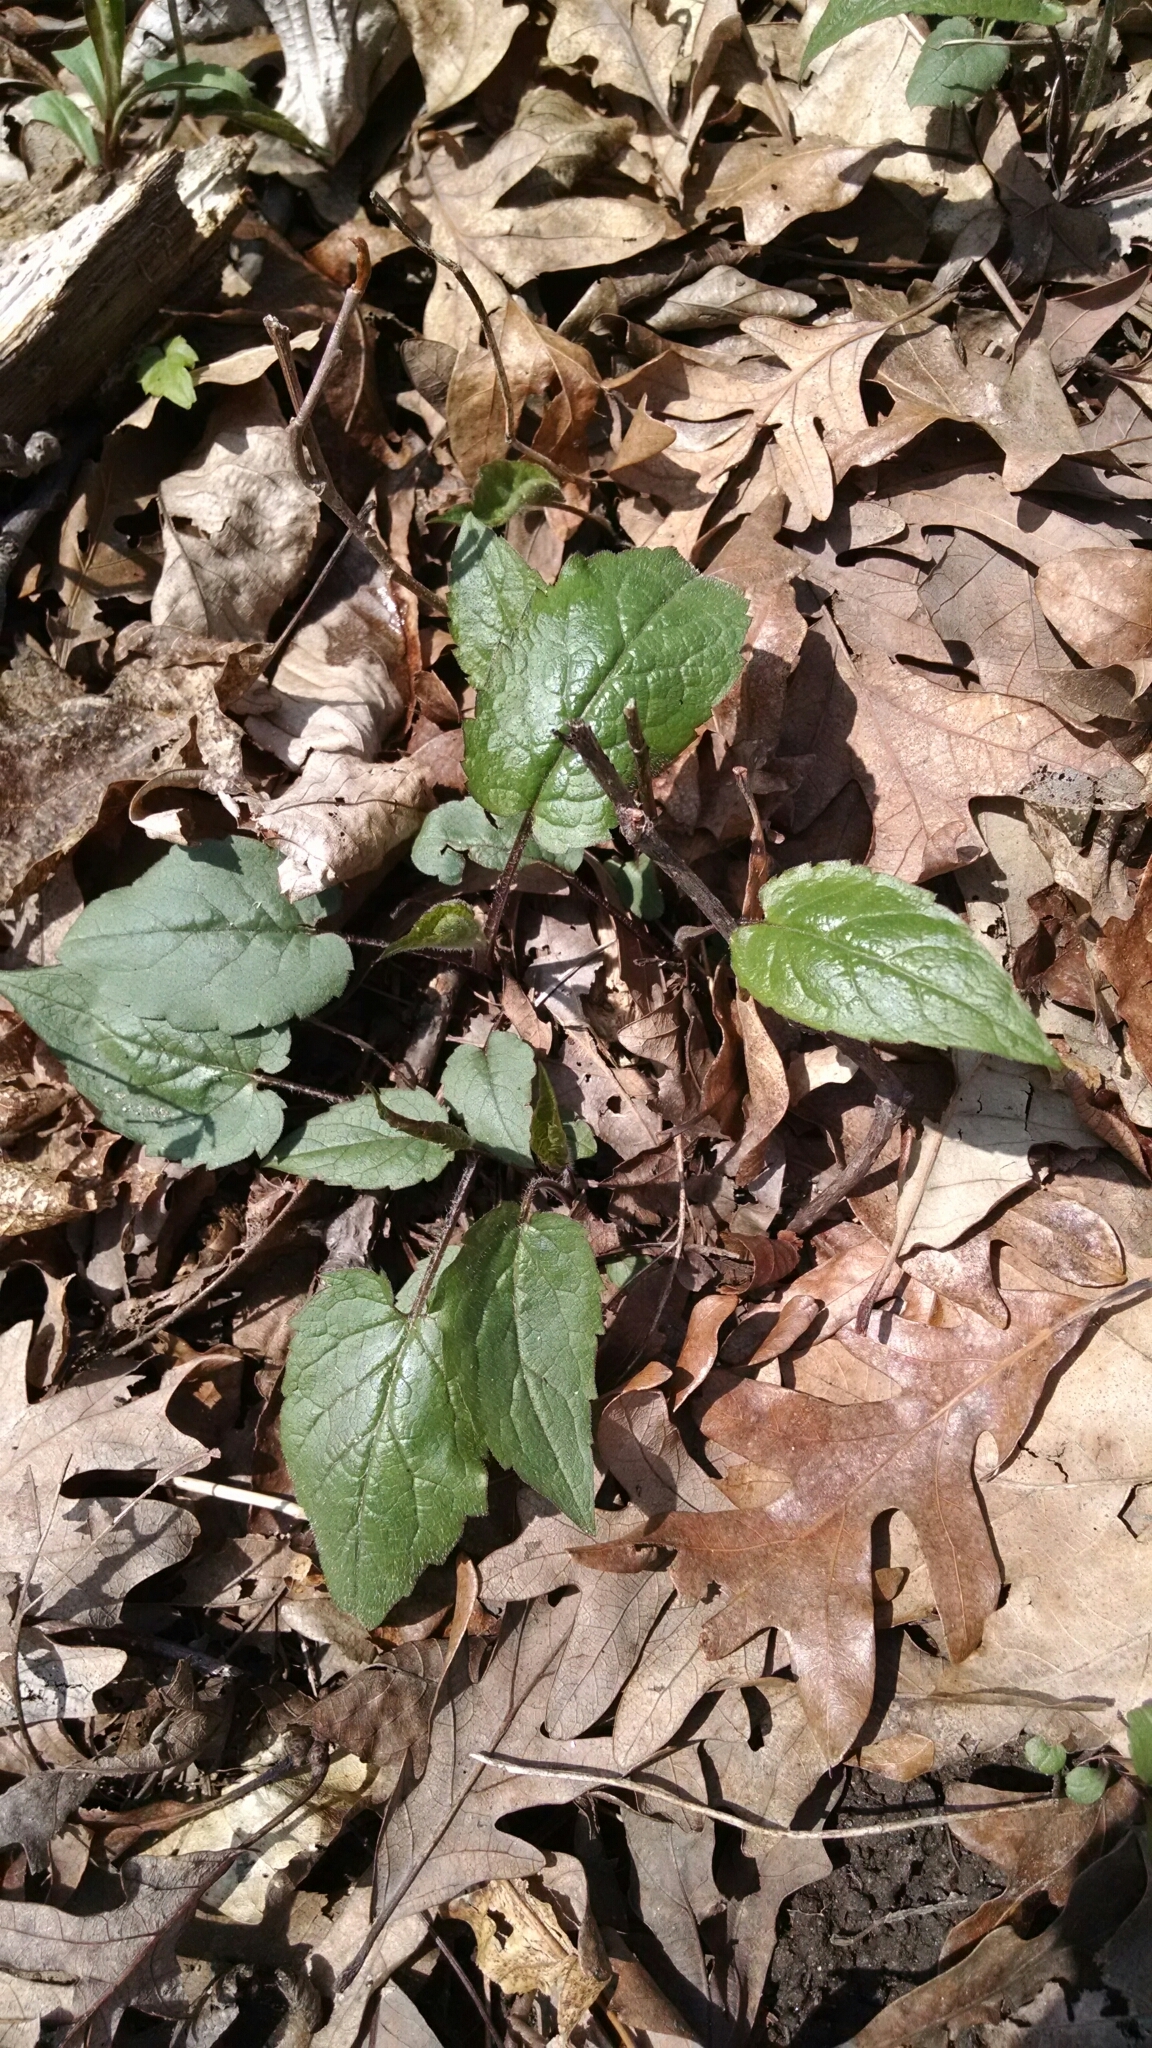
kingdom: Plantae
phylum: Tracheophyta
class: Magnoliopsida
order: Asterales
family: Asteraceae
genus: Eurybia
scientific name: Eurybia divaricata
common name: White wood aster
